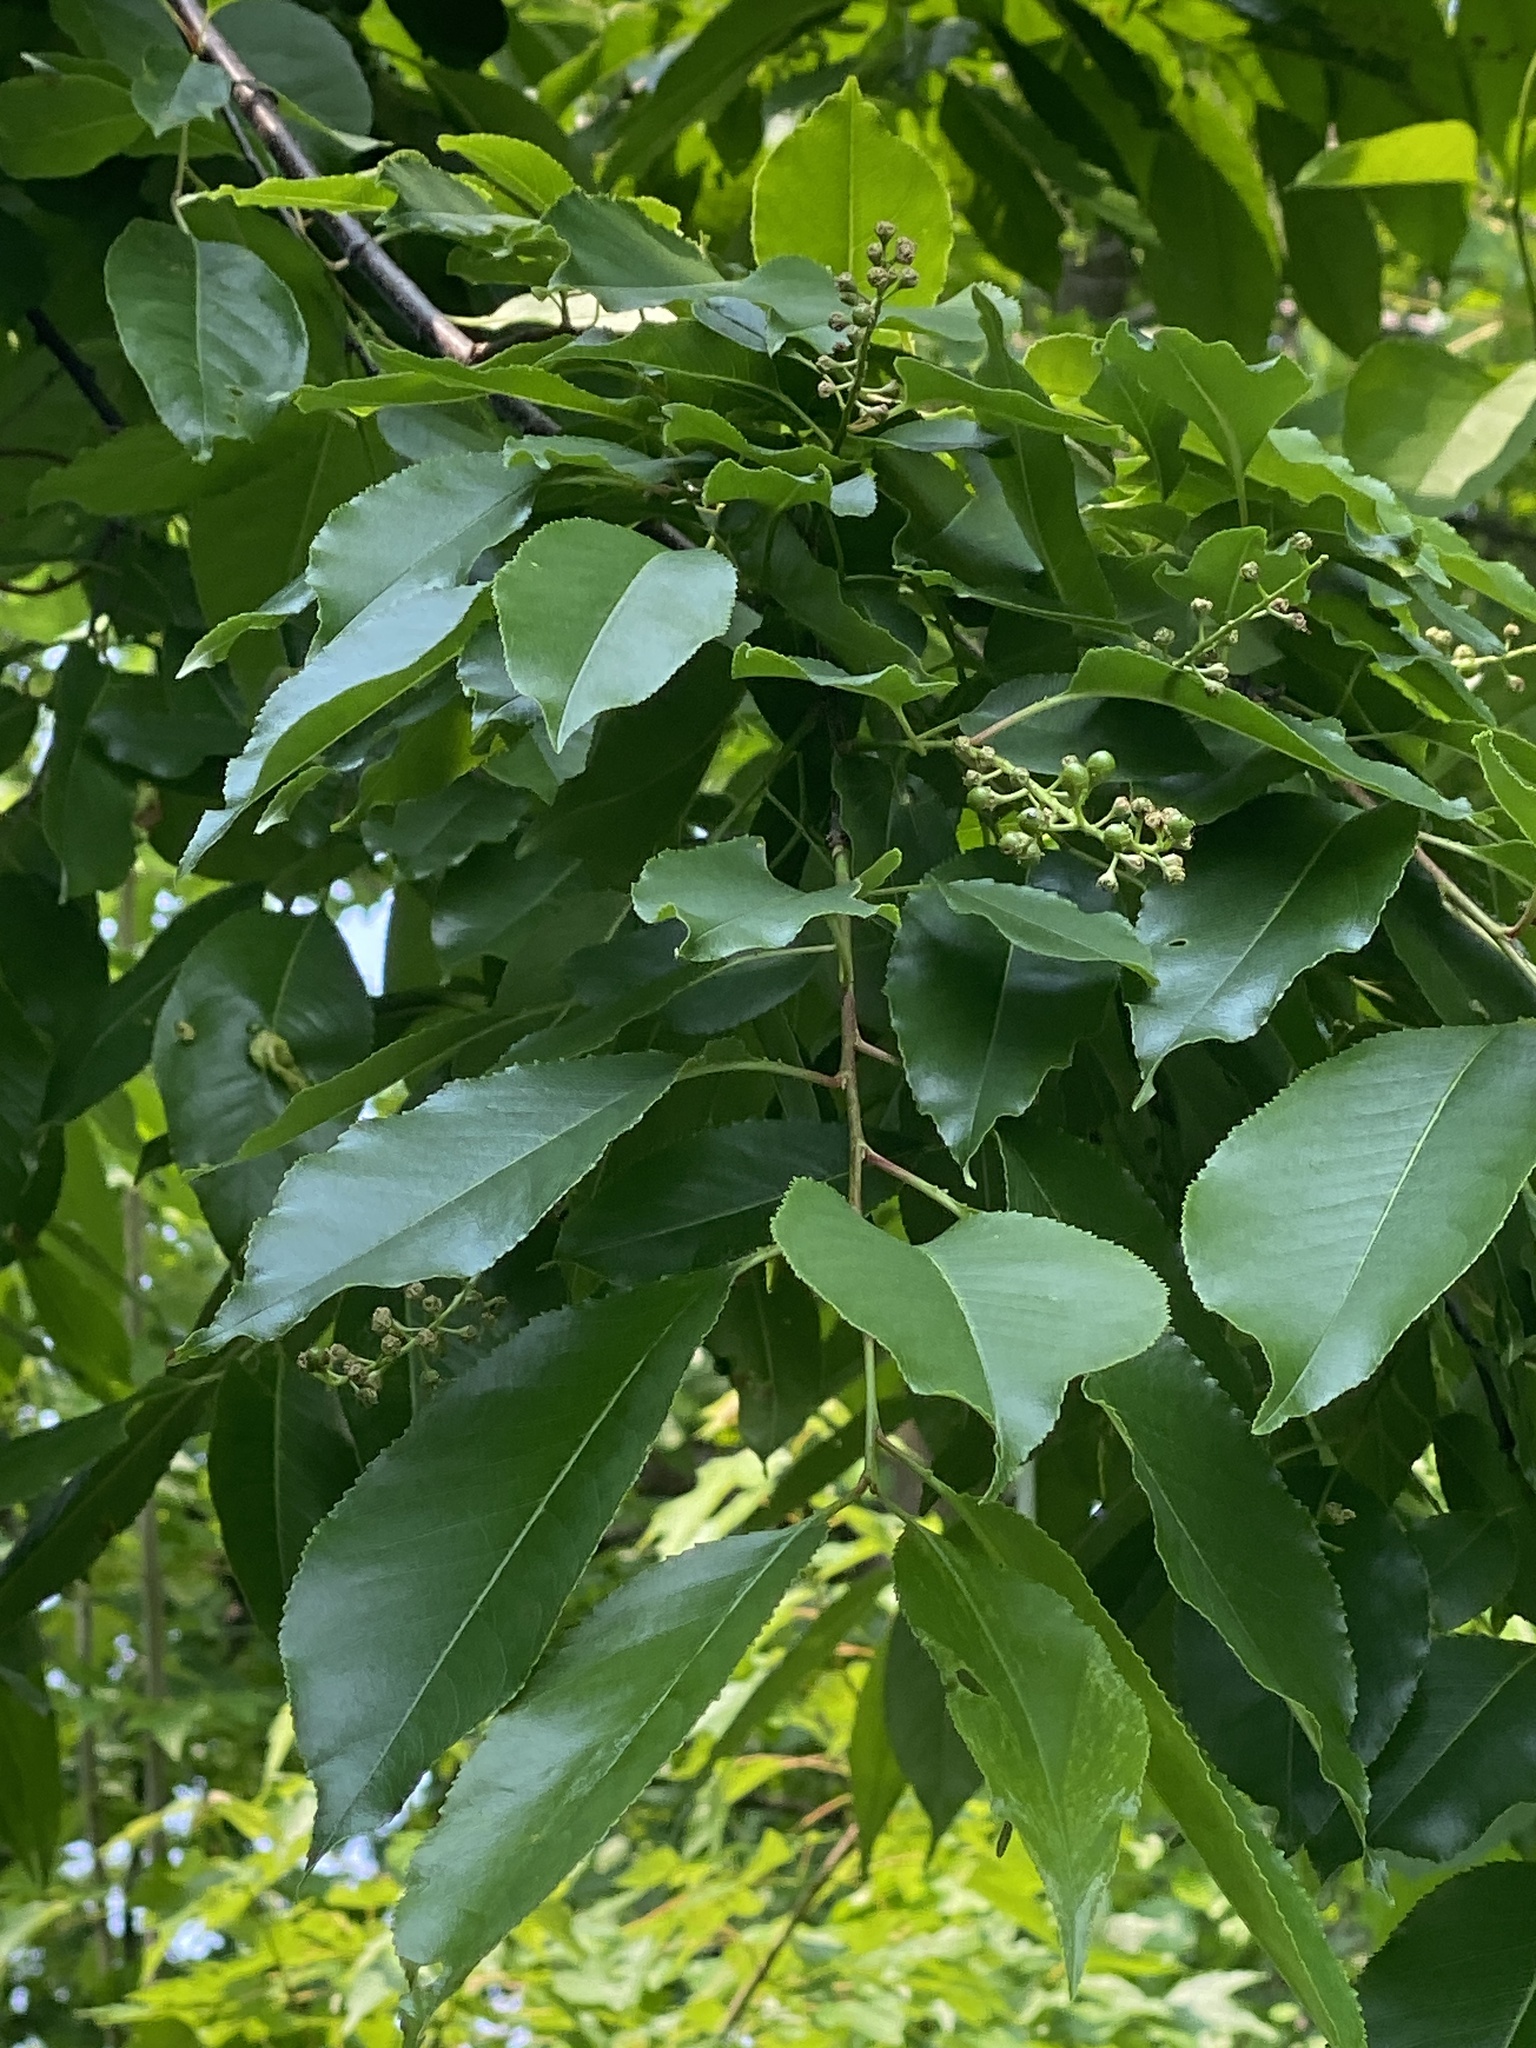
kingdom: Plantae
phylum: Tracheophyta
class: Magnoliopsida
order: Rosales
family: Rosaceae
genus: Prunus
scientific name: Prunus serotina
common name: Black cherry
